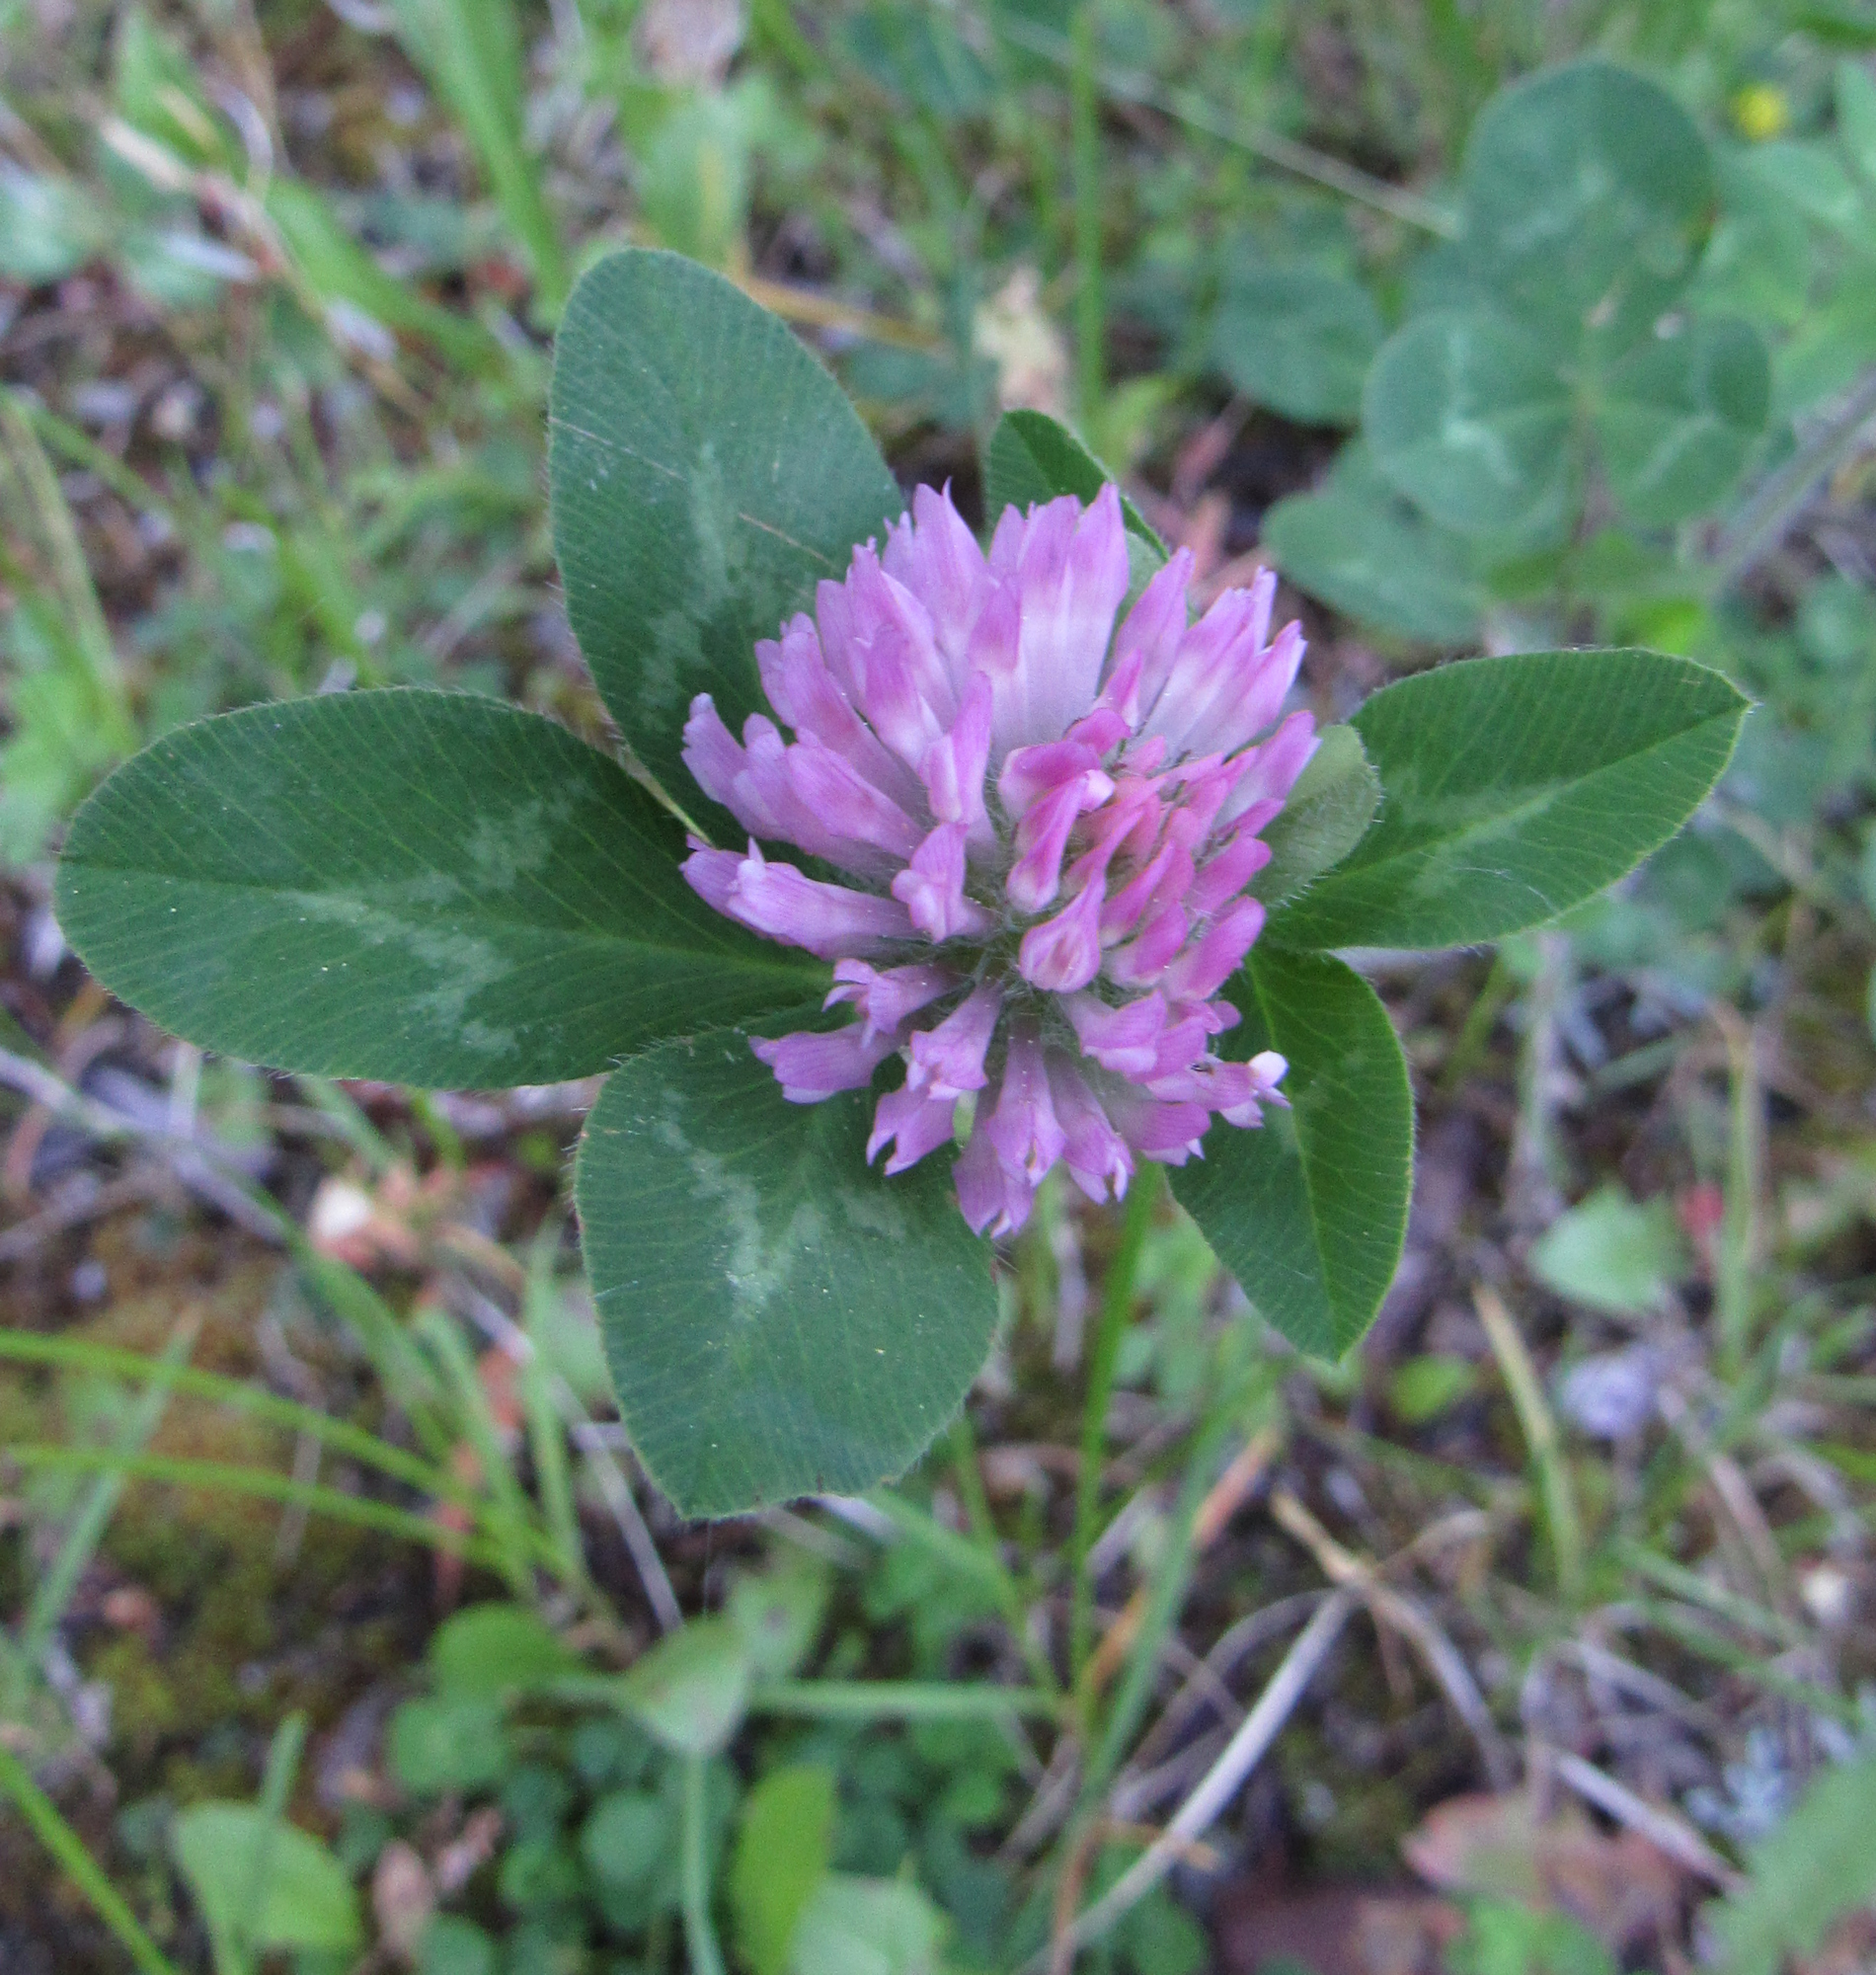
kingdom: Plantae
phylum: Tracheophyta
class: Magnoliopsida
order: Fabales
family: Fabaceae
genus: Trifolium
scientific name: Trifolium pratense
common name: Red clover
